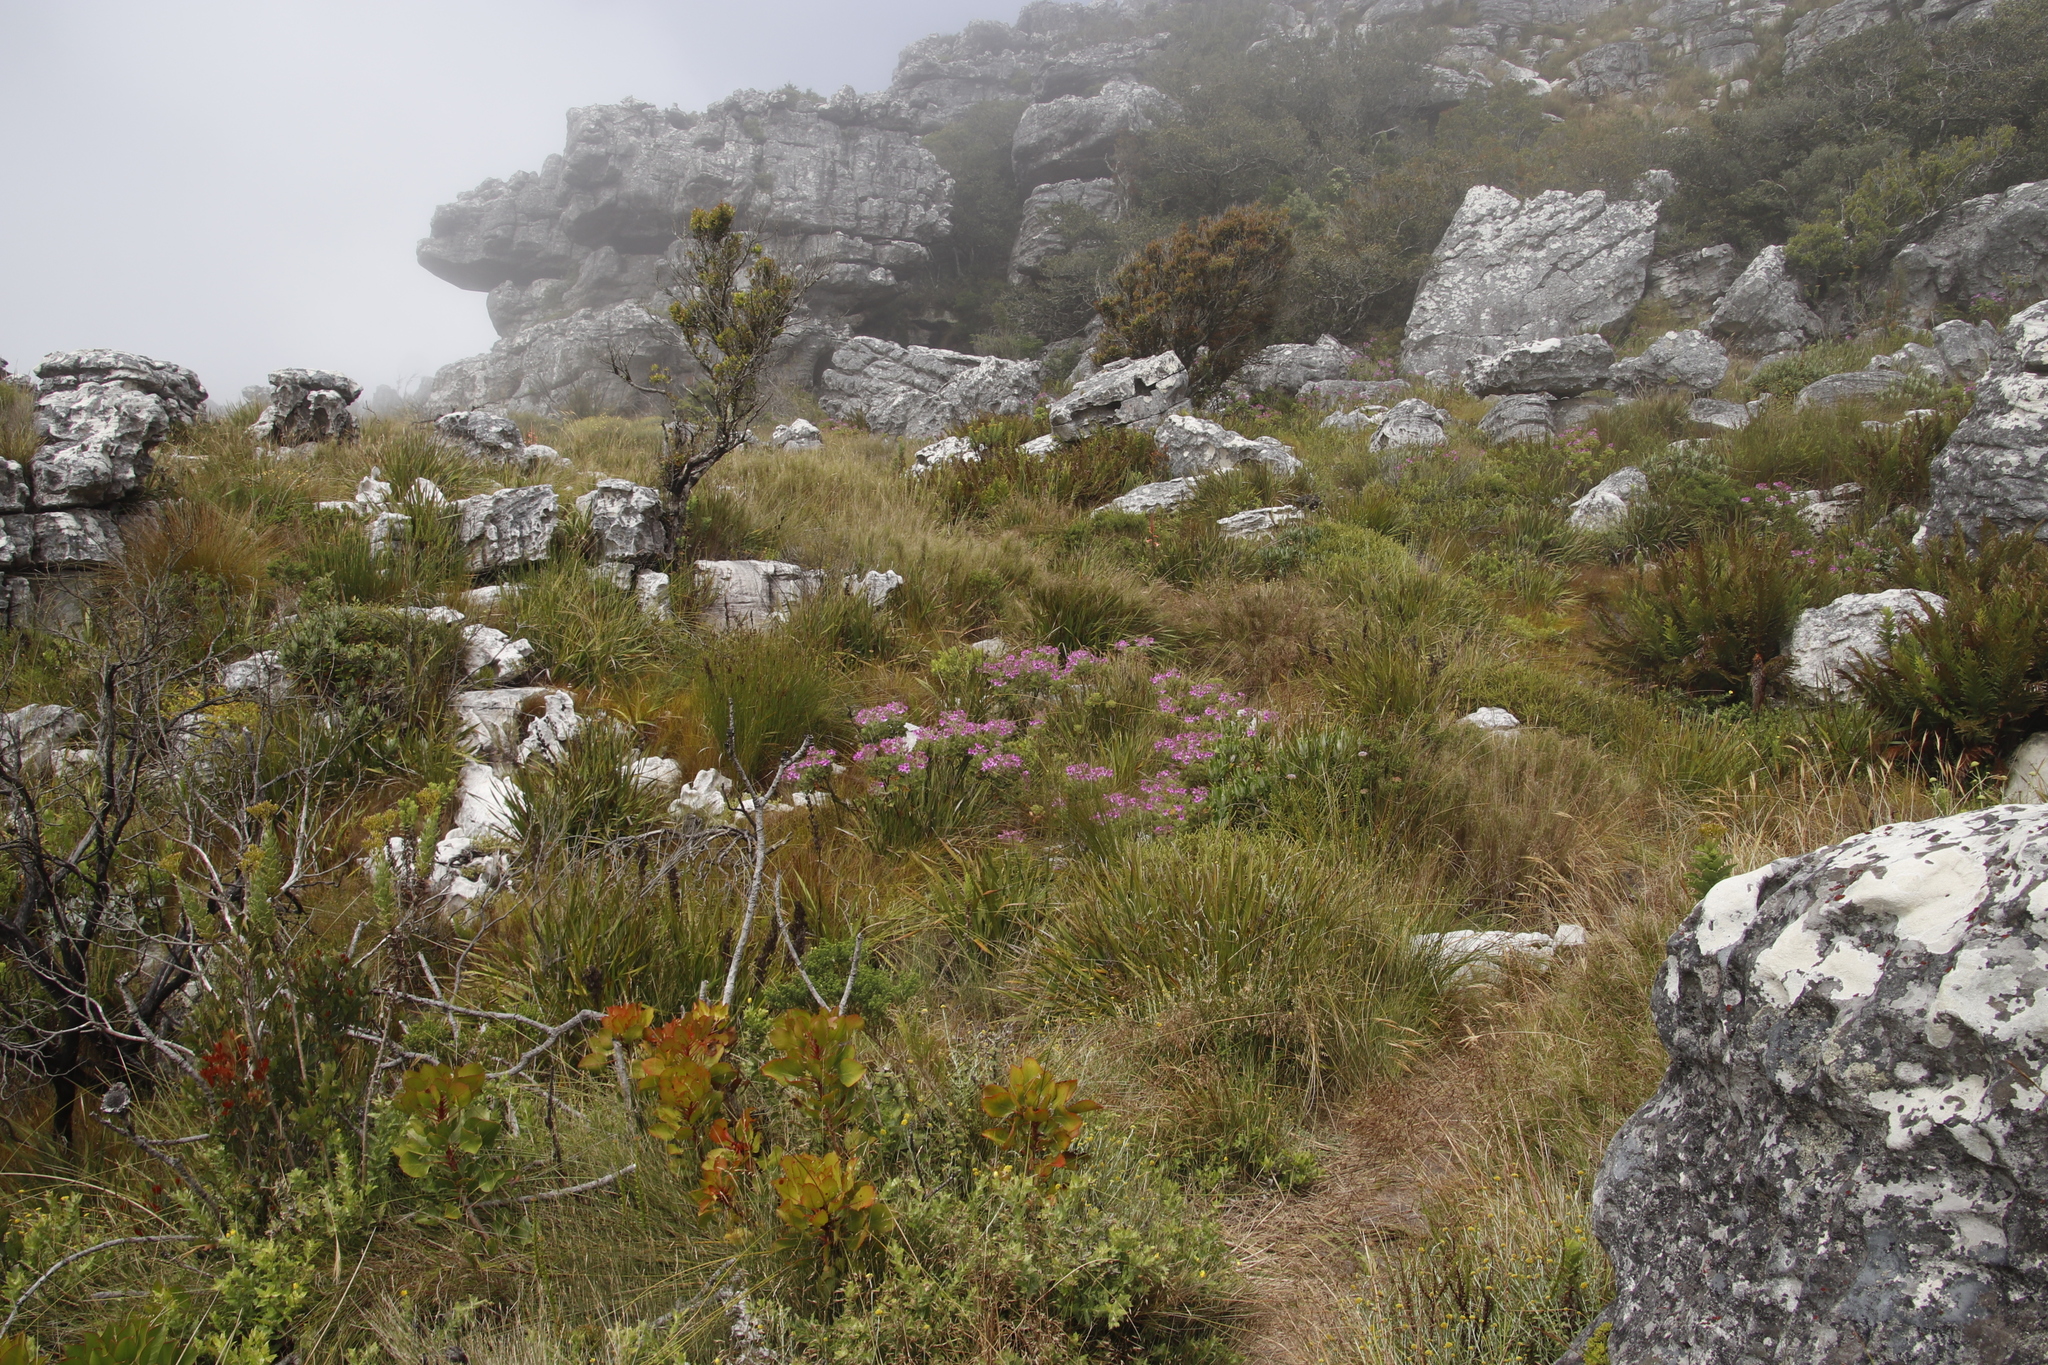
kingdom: Plantae
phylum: Tracheophyta
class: Magnoliopsida
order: Geraniales
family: Geraniaceae
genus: Pelargonium
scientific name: Pelargonium cucullatum
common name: Tree pelargonium
